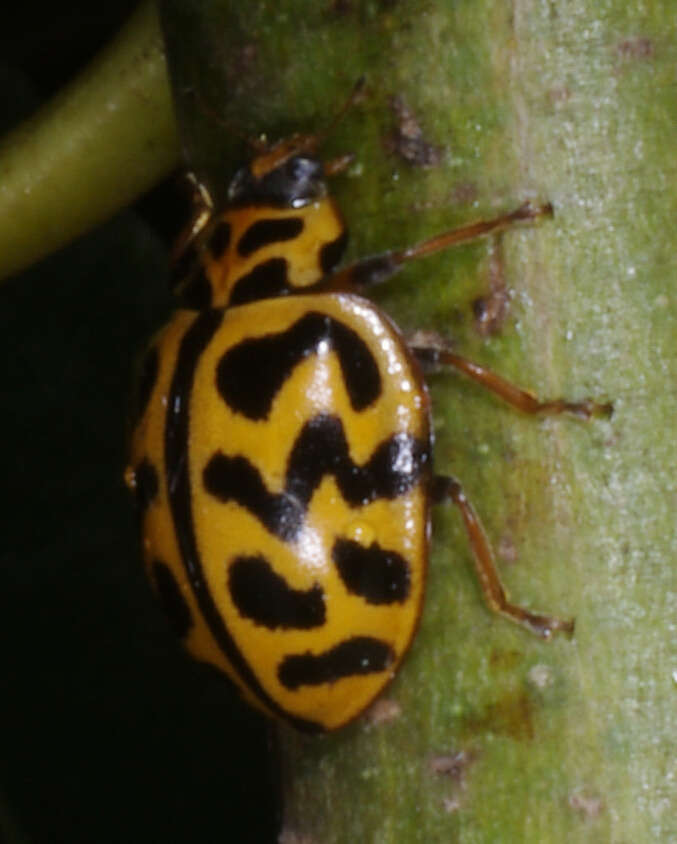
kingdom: Animalia
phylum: Arthropoda
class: Insecta
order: Coleoptera
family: Coccinellidae
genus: Cleobora
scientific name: Cleobora
